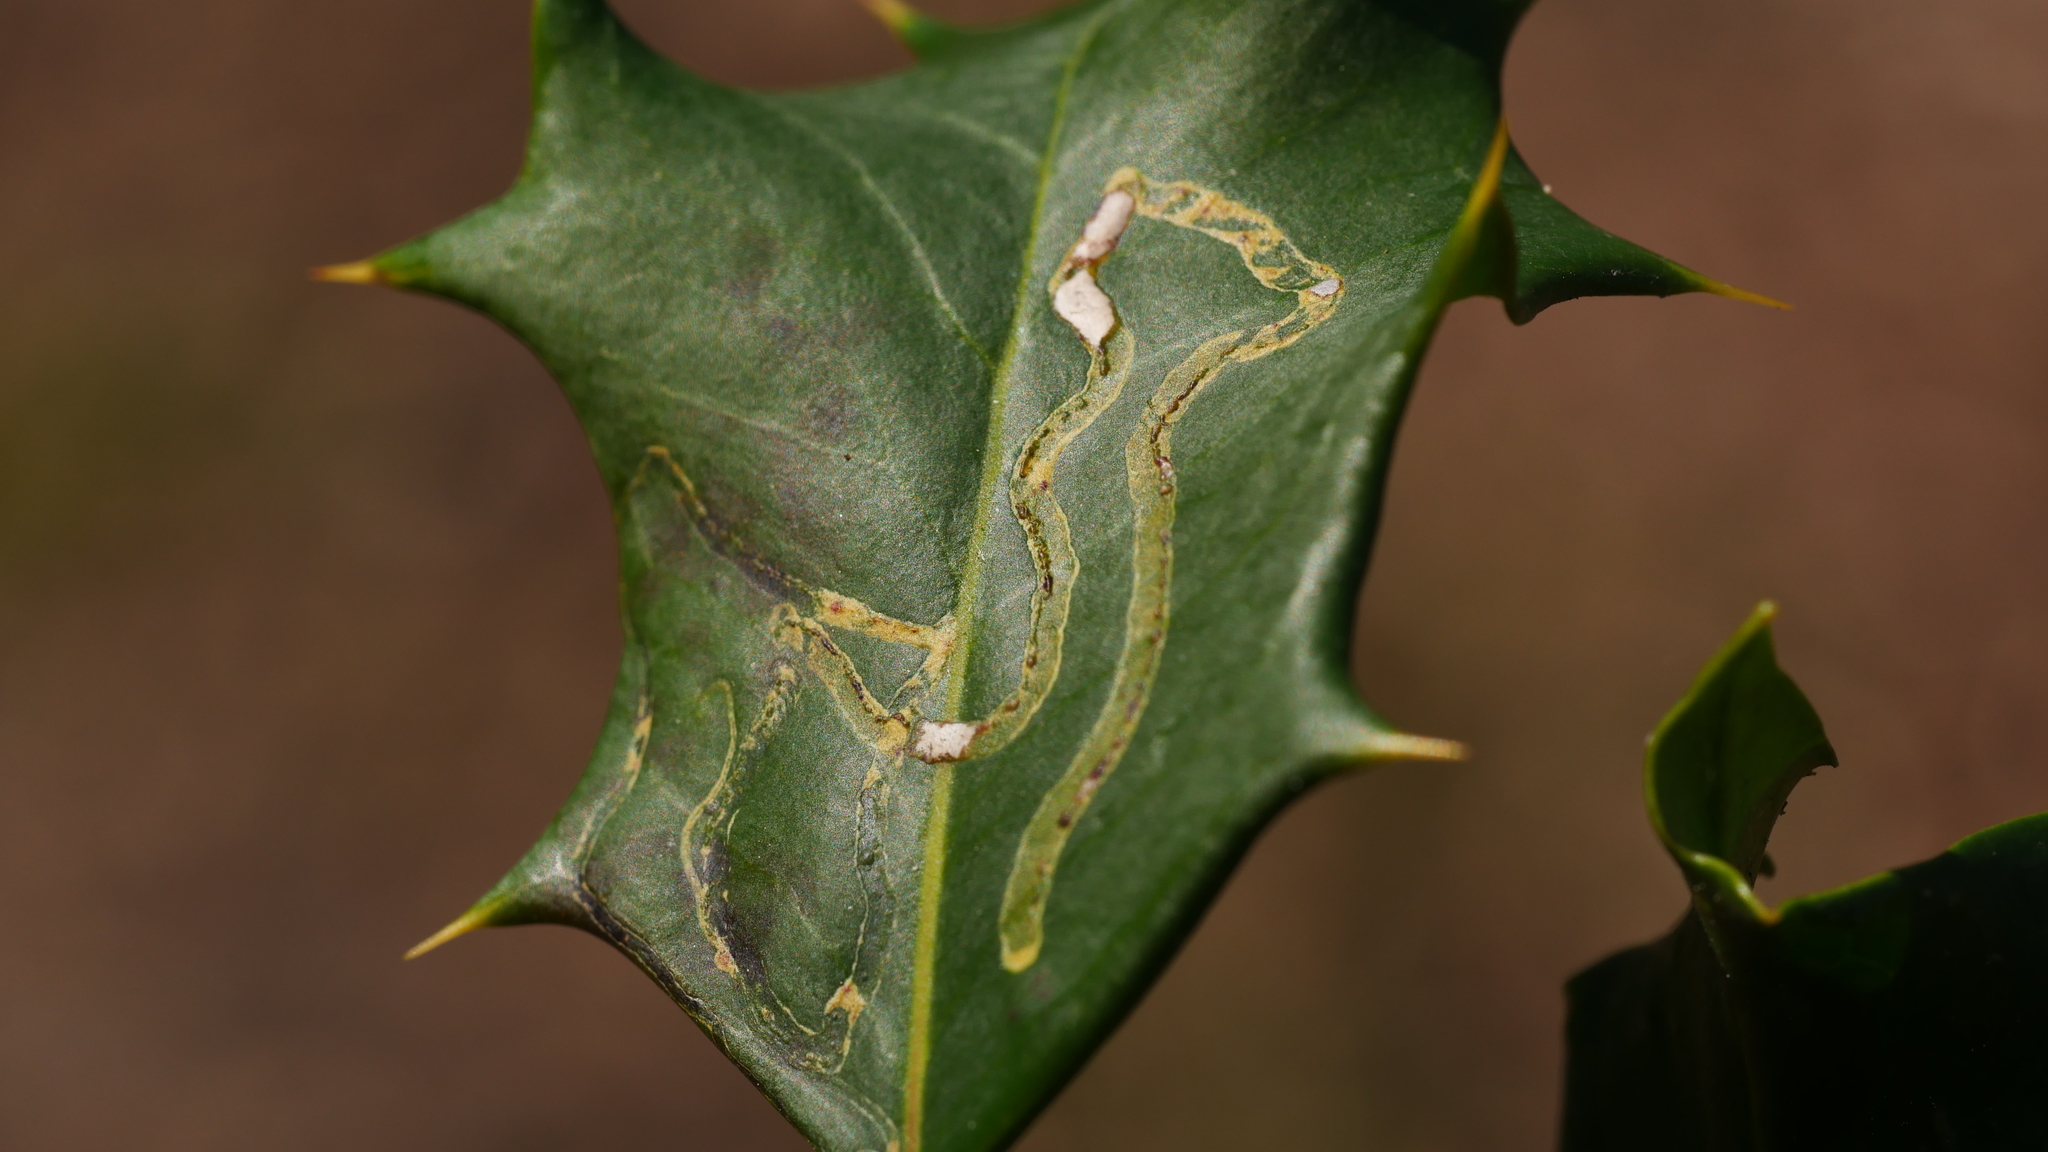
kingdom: Animalia
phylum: Arthropoda
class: Insecta
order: Diptera
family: Agromyzidae
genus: Phytomyza
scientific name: Phytomyza opacae
